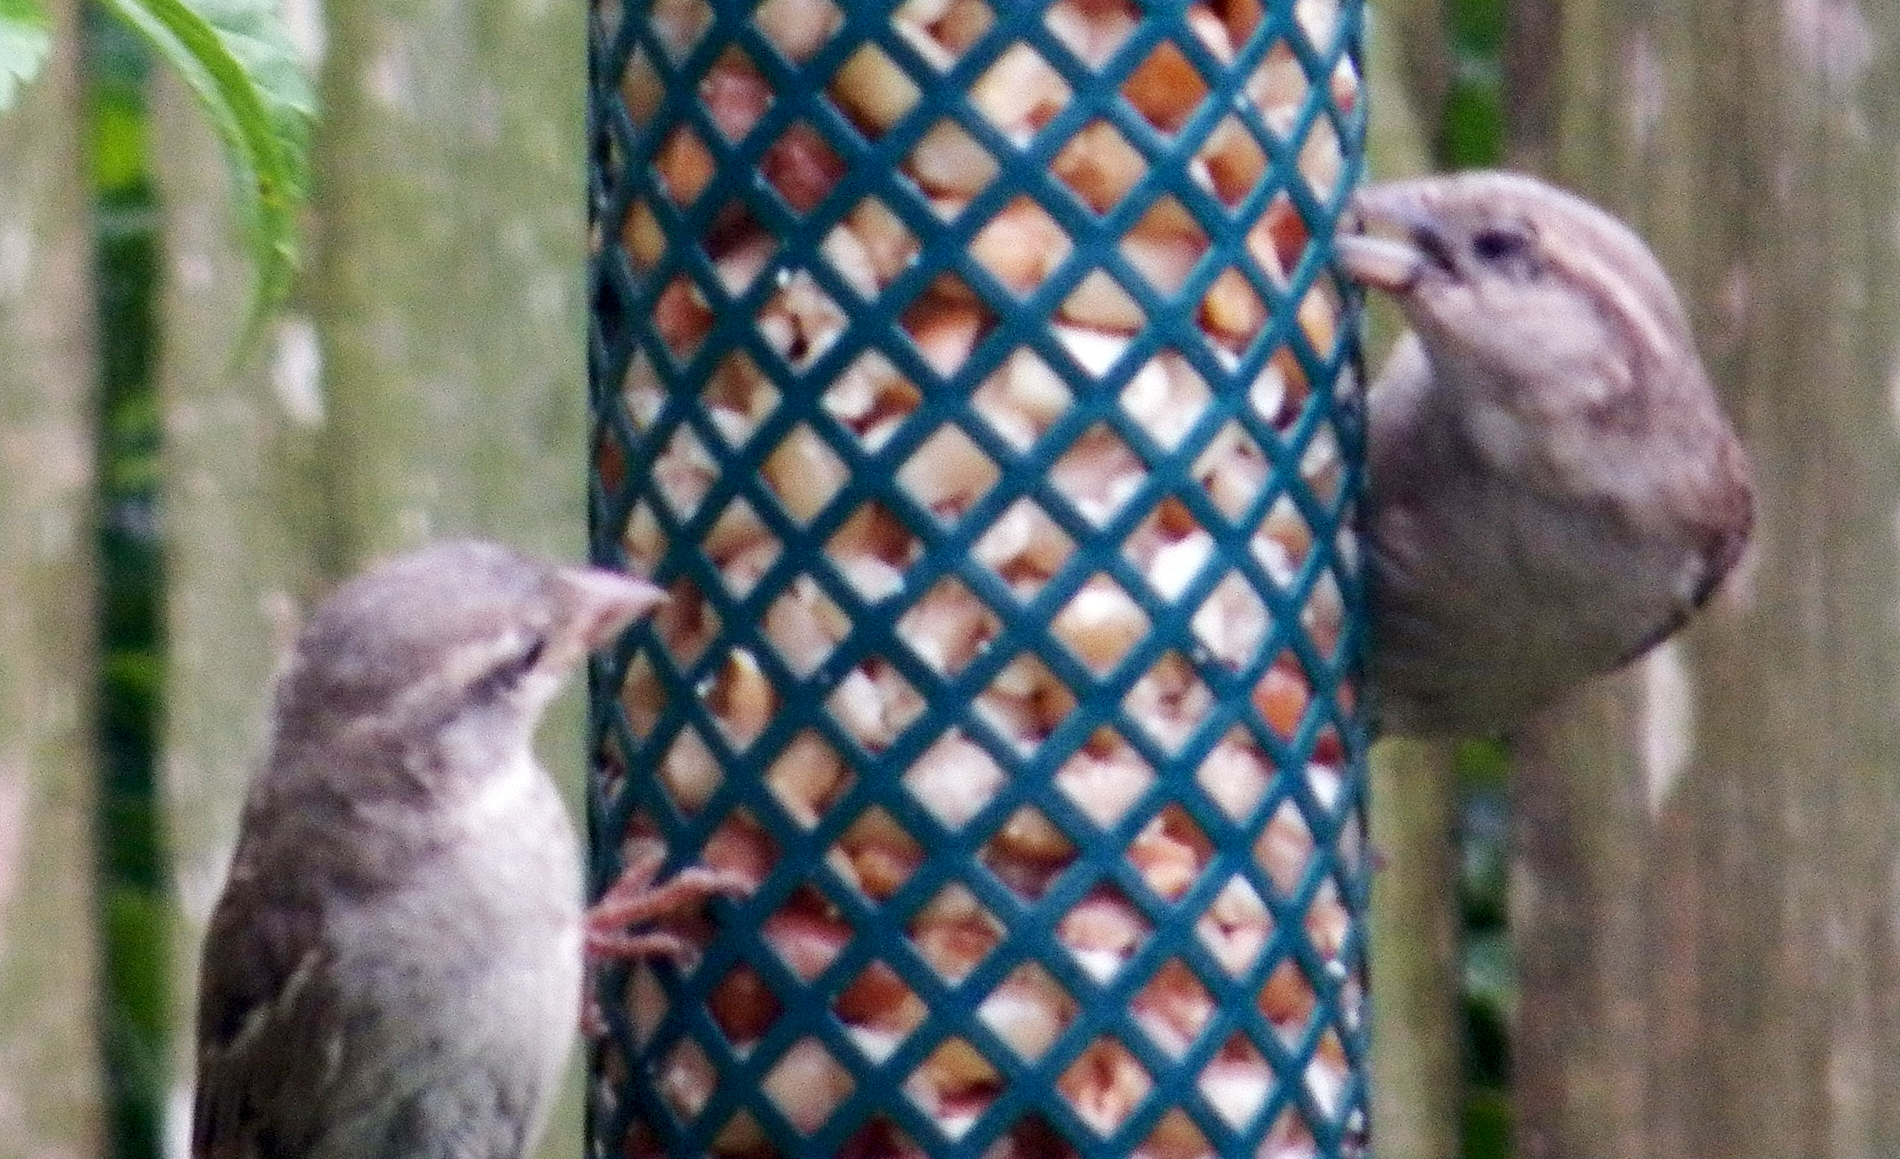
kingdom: Animalia
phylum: Chordata
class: Aves
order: Passeriformes
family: Passeridae
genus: Passer
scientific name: Passer domesticus
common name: House sparrow
